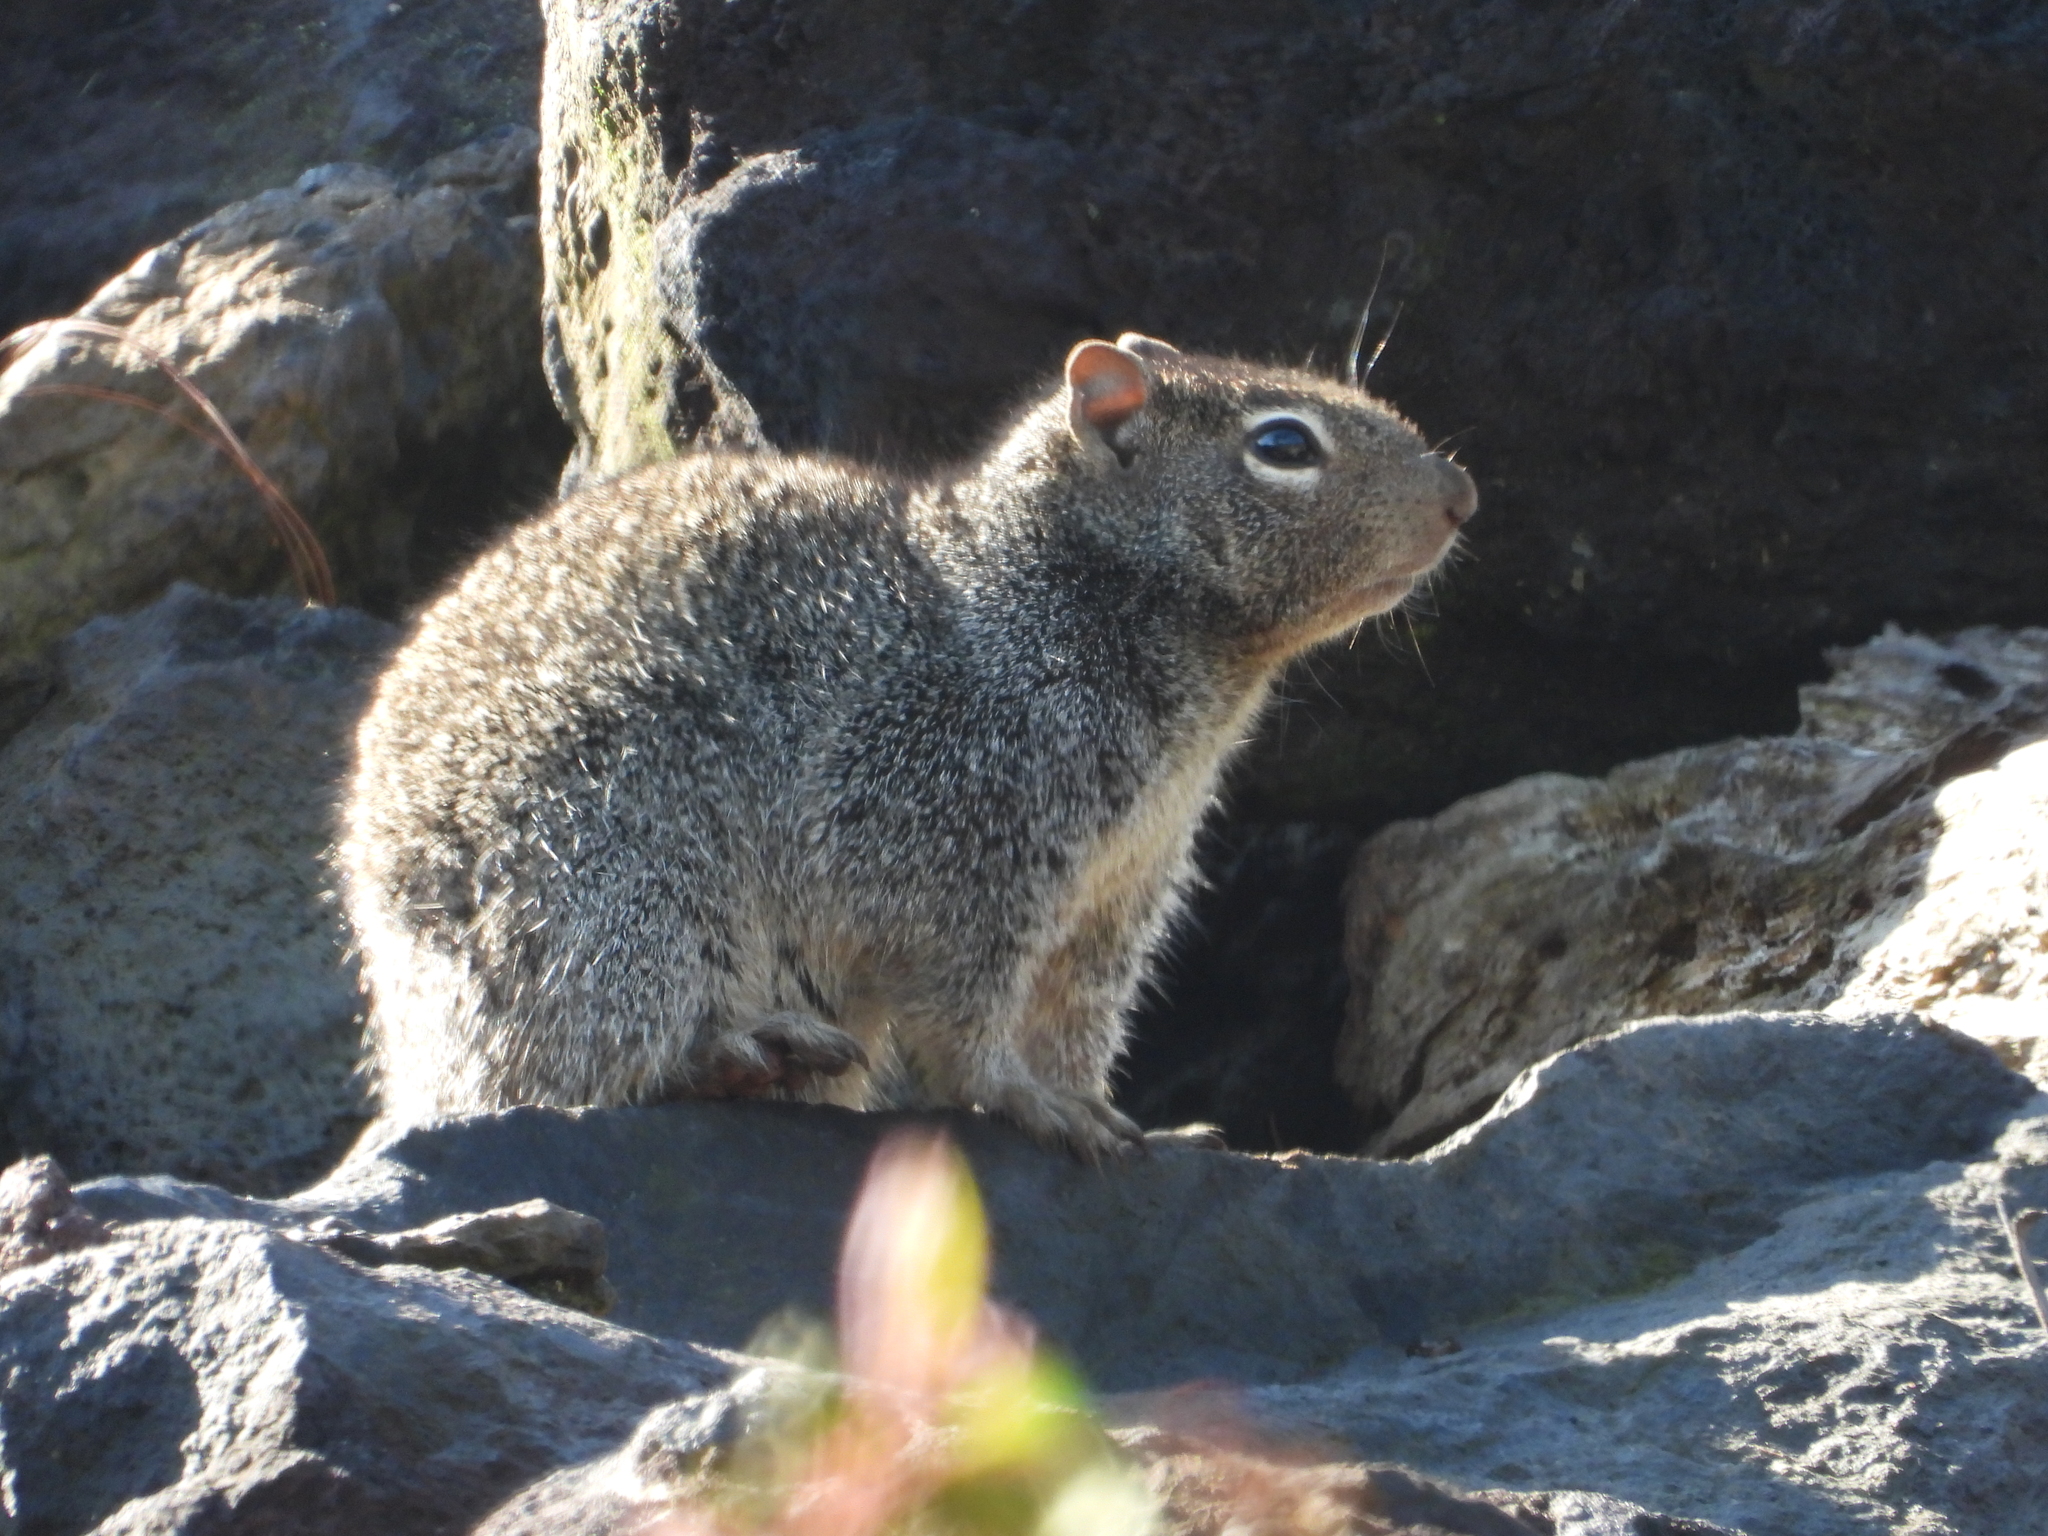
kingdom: Animalia
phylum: Chordata
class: Mammalia
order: Rodentia
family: Sciuridae
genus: Otospermophilus
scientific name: Otospermophilus variegatus
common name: Rock squirrel
